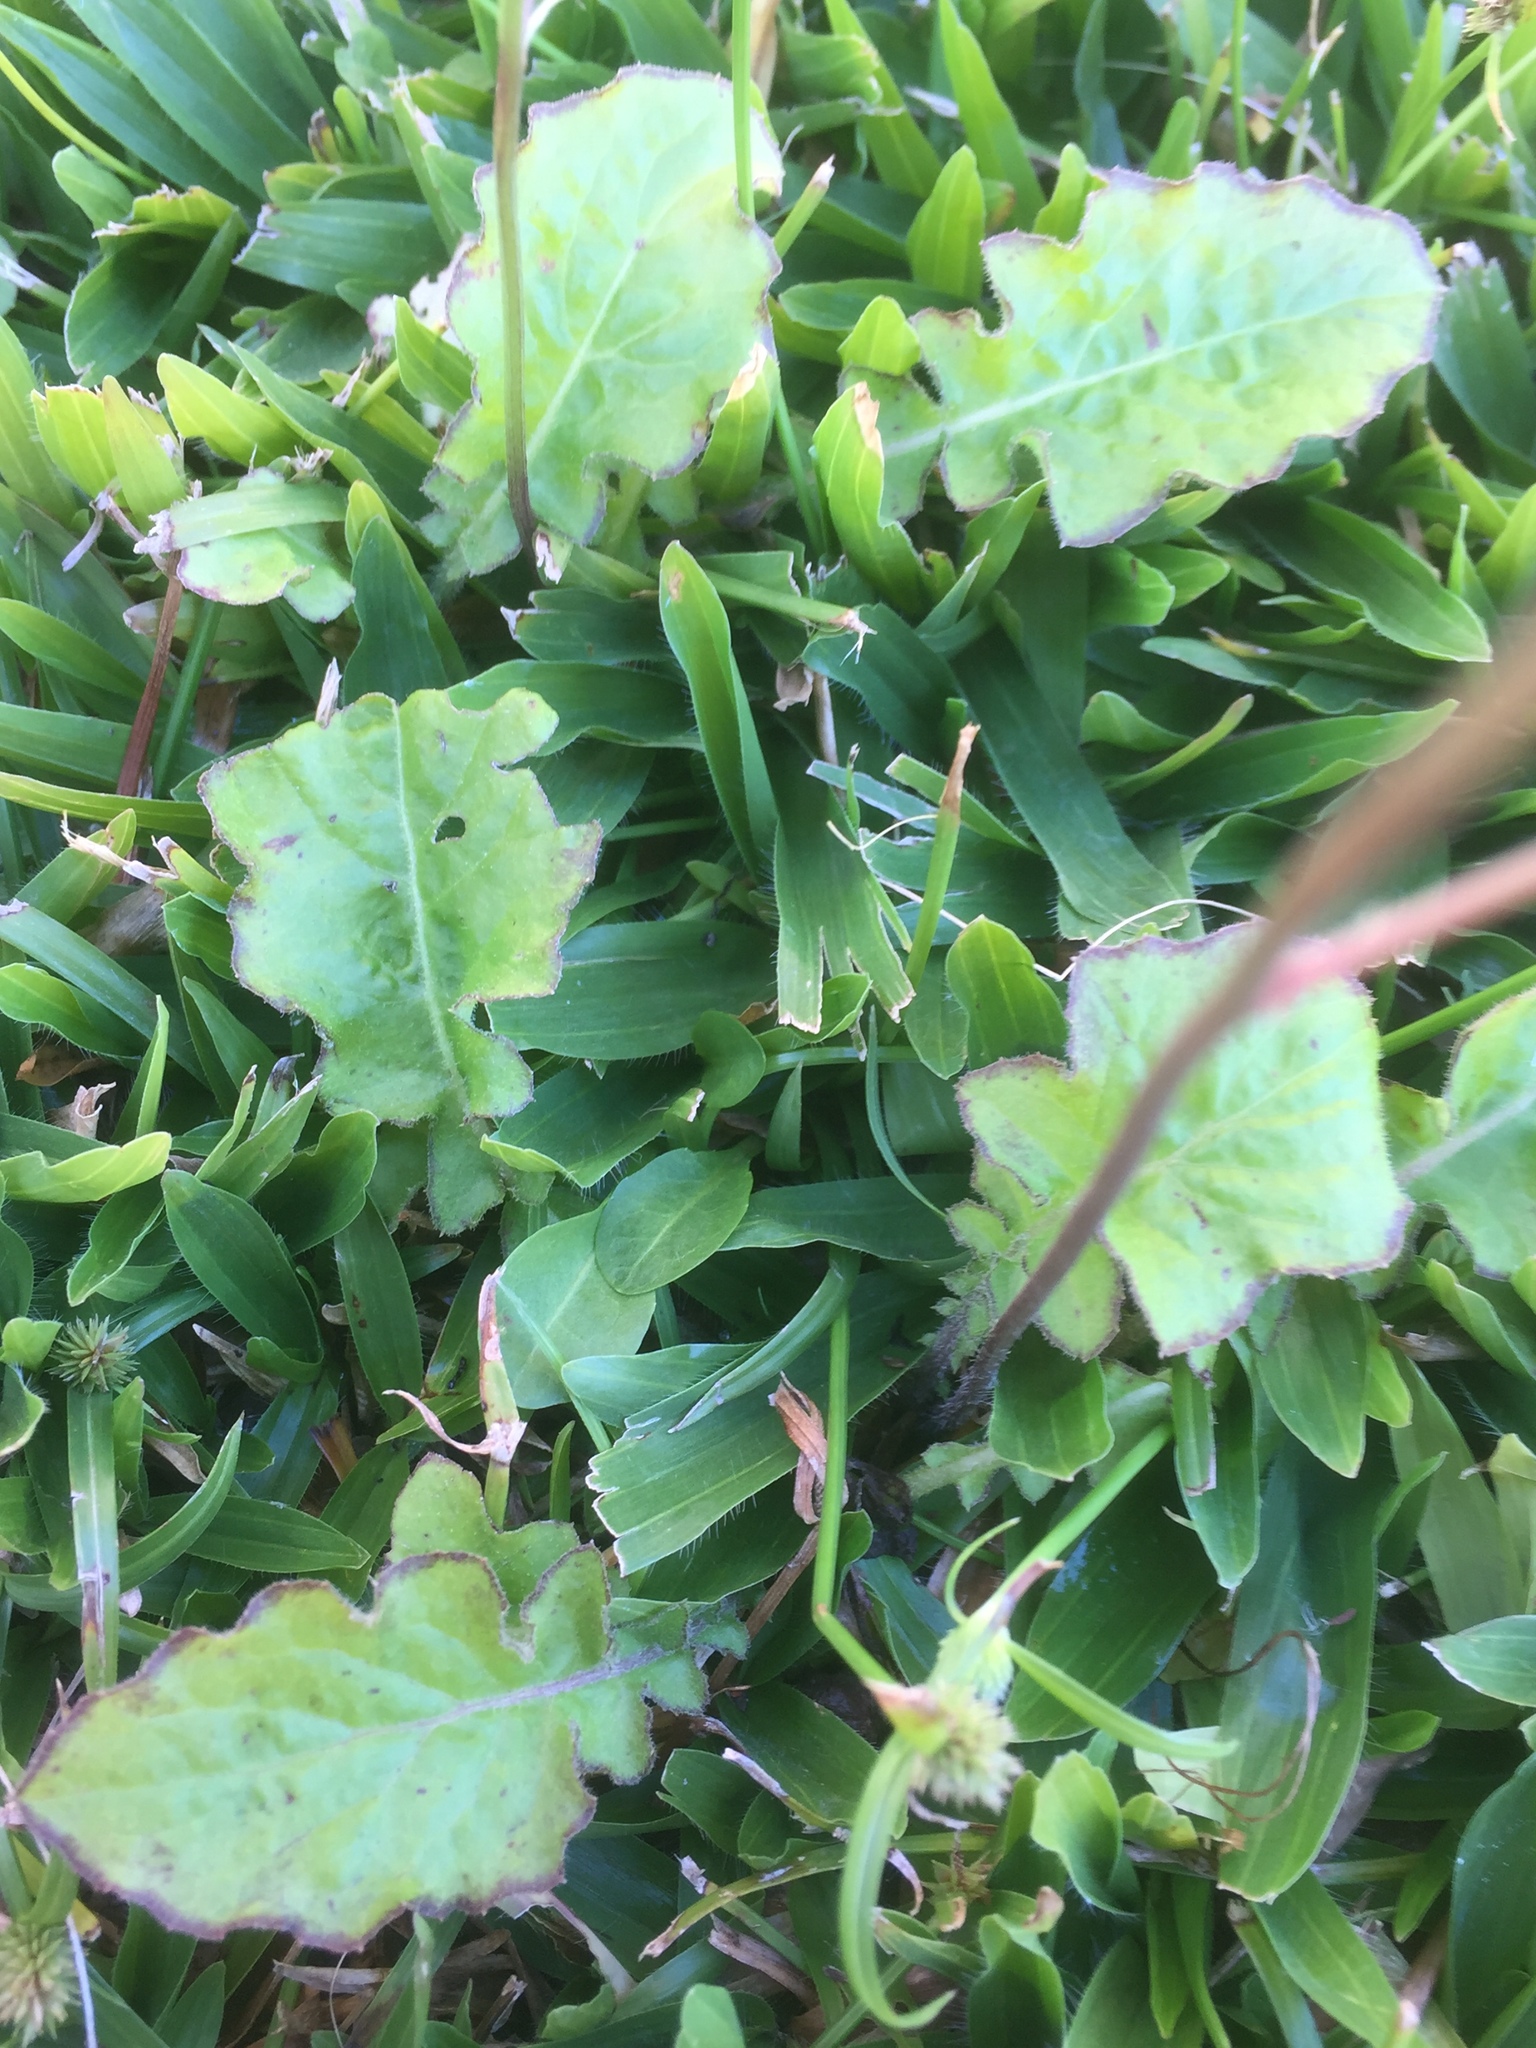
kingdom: Plantae
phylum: Tracheophyta
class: Magnoliopsida
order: Asterales
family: Asteraceae
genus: Youngia
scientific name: Youngia japonica
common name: Oriental false hawksbeard
